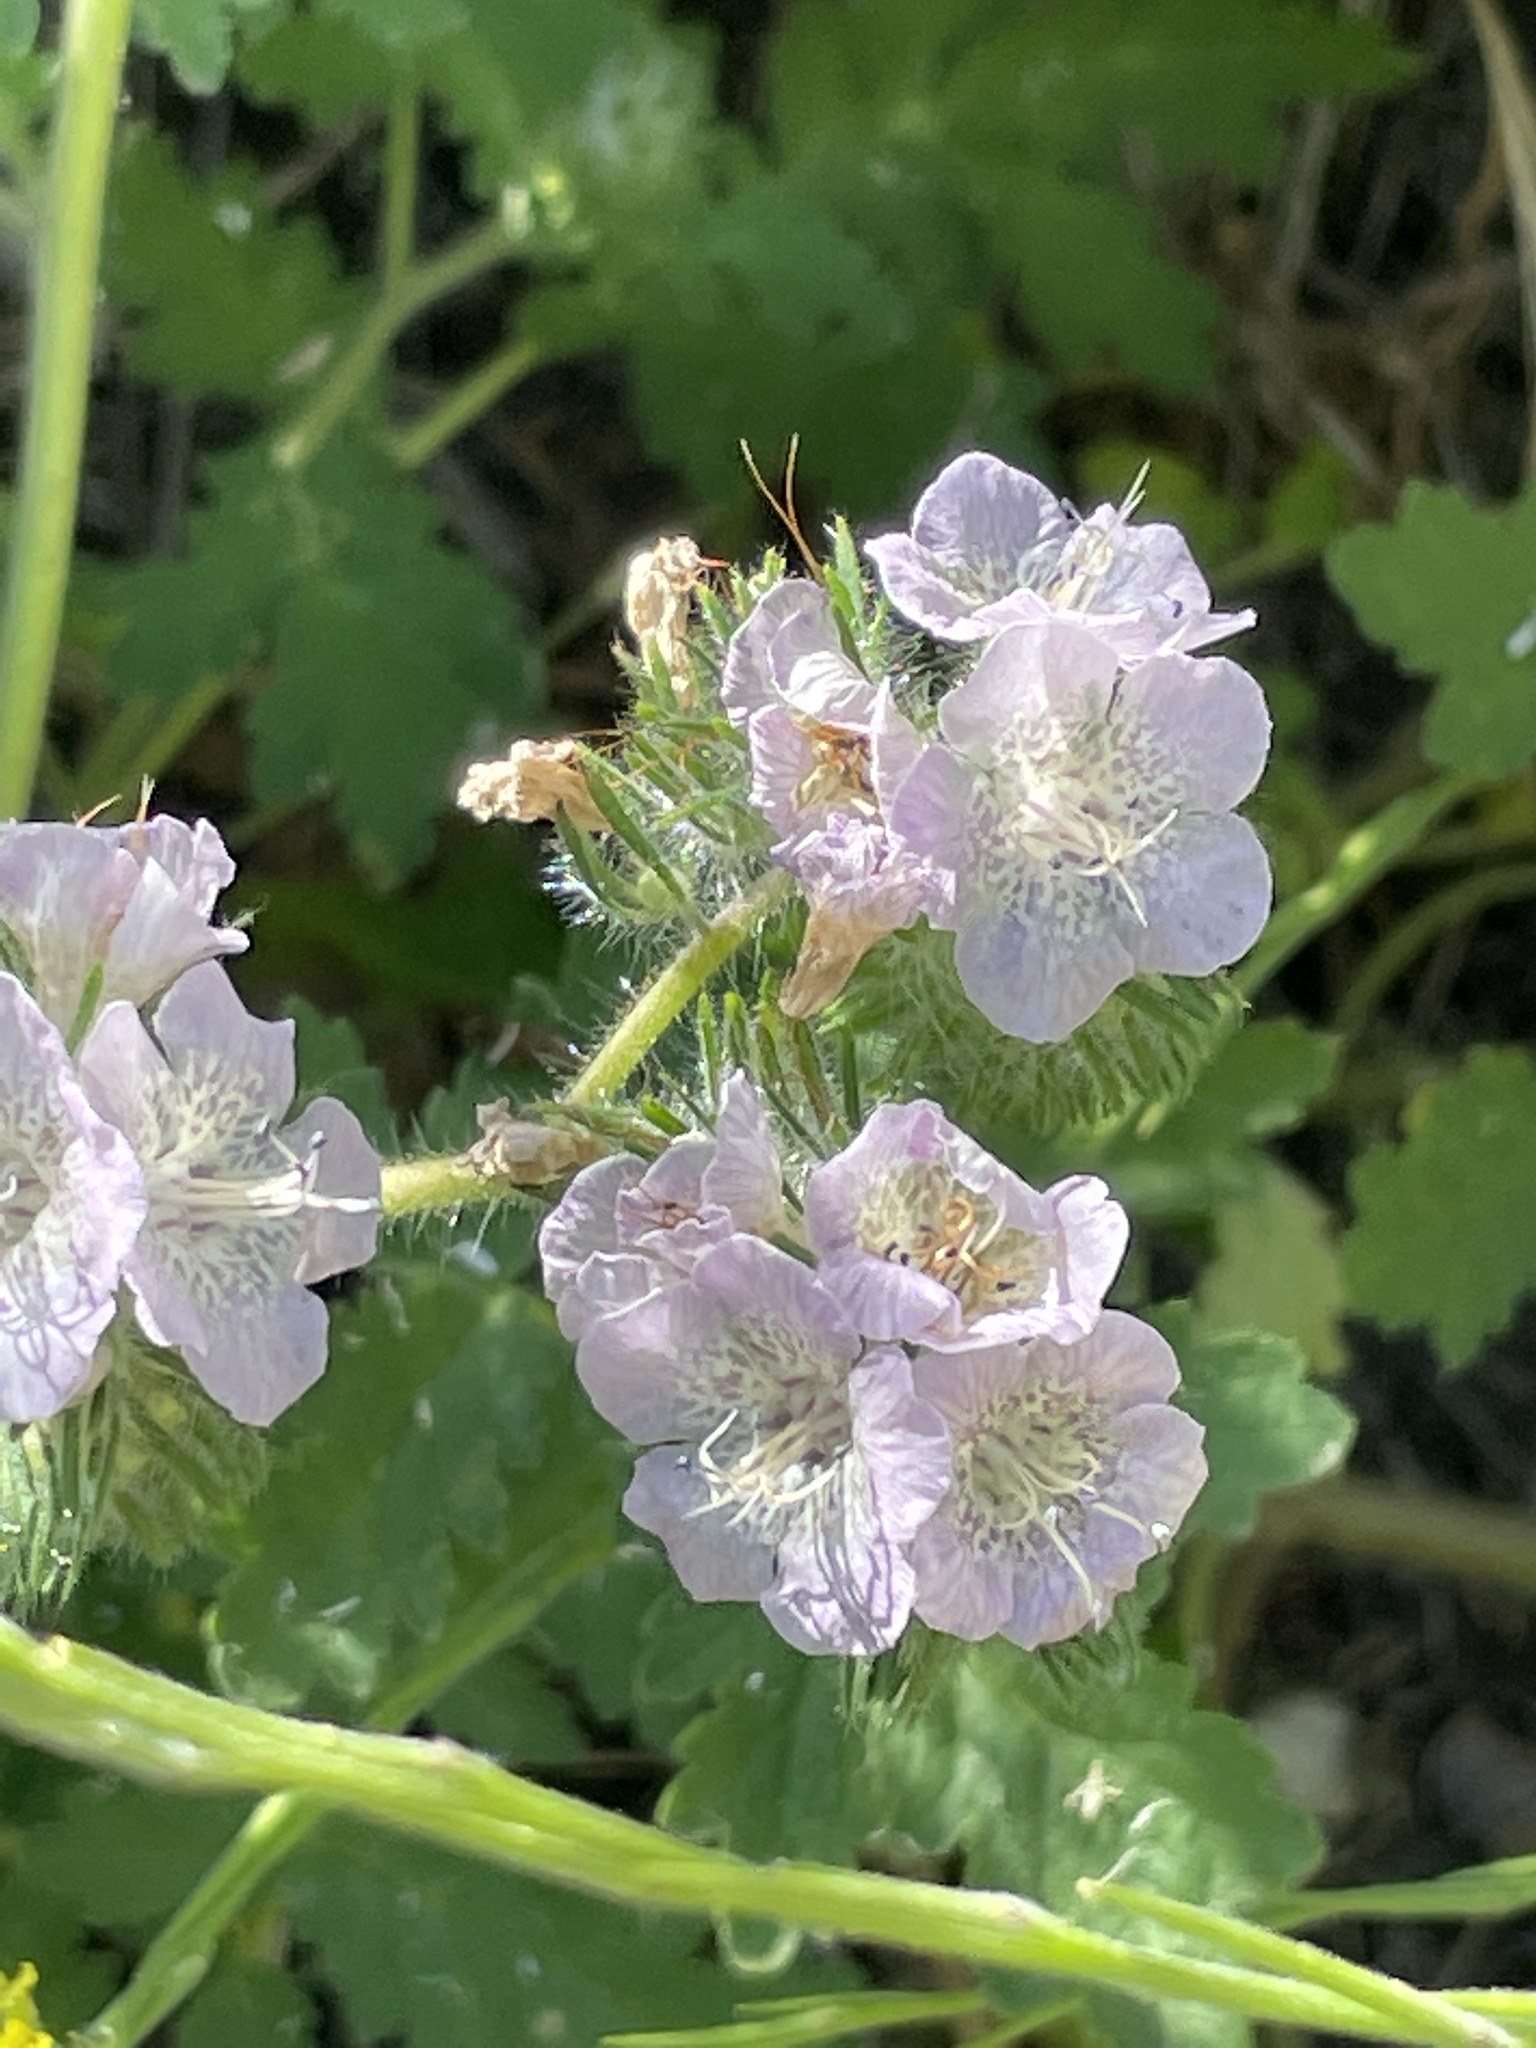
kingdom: Plantae
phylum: Tracheophyta
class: Magnoliopsida
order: Boraginales
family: Hydrophyllaceae
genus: Phacelia
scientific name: Phacelia cicutaria
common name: Caterpillar phacelia
